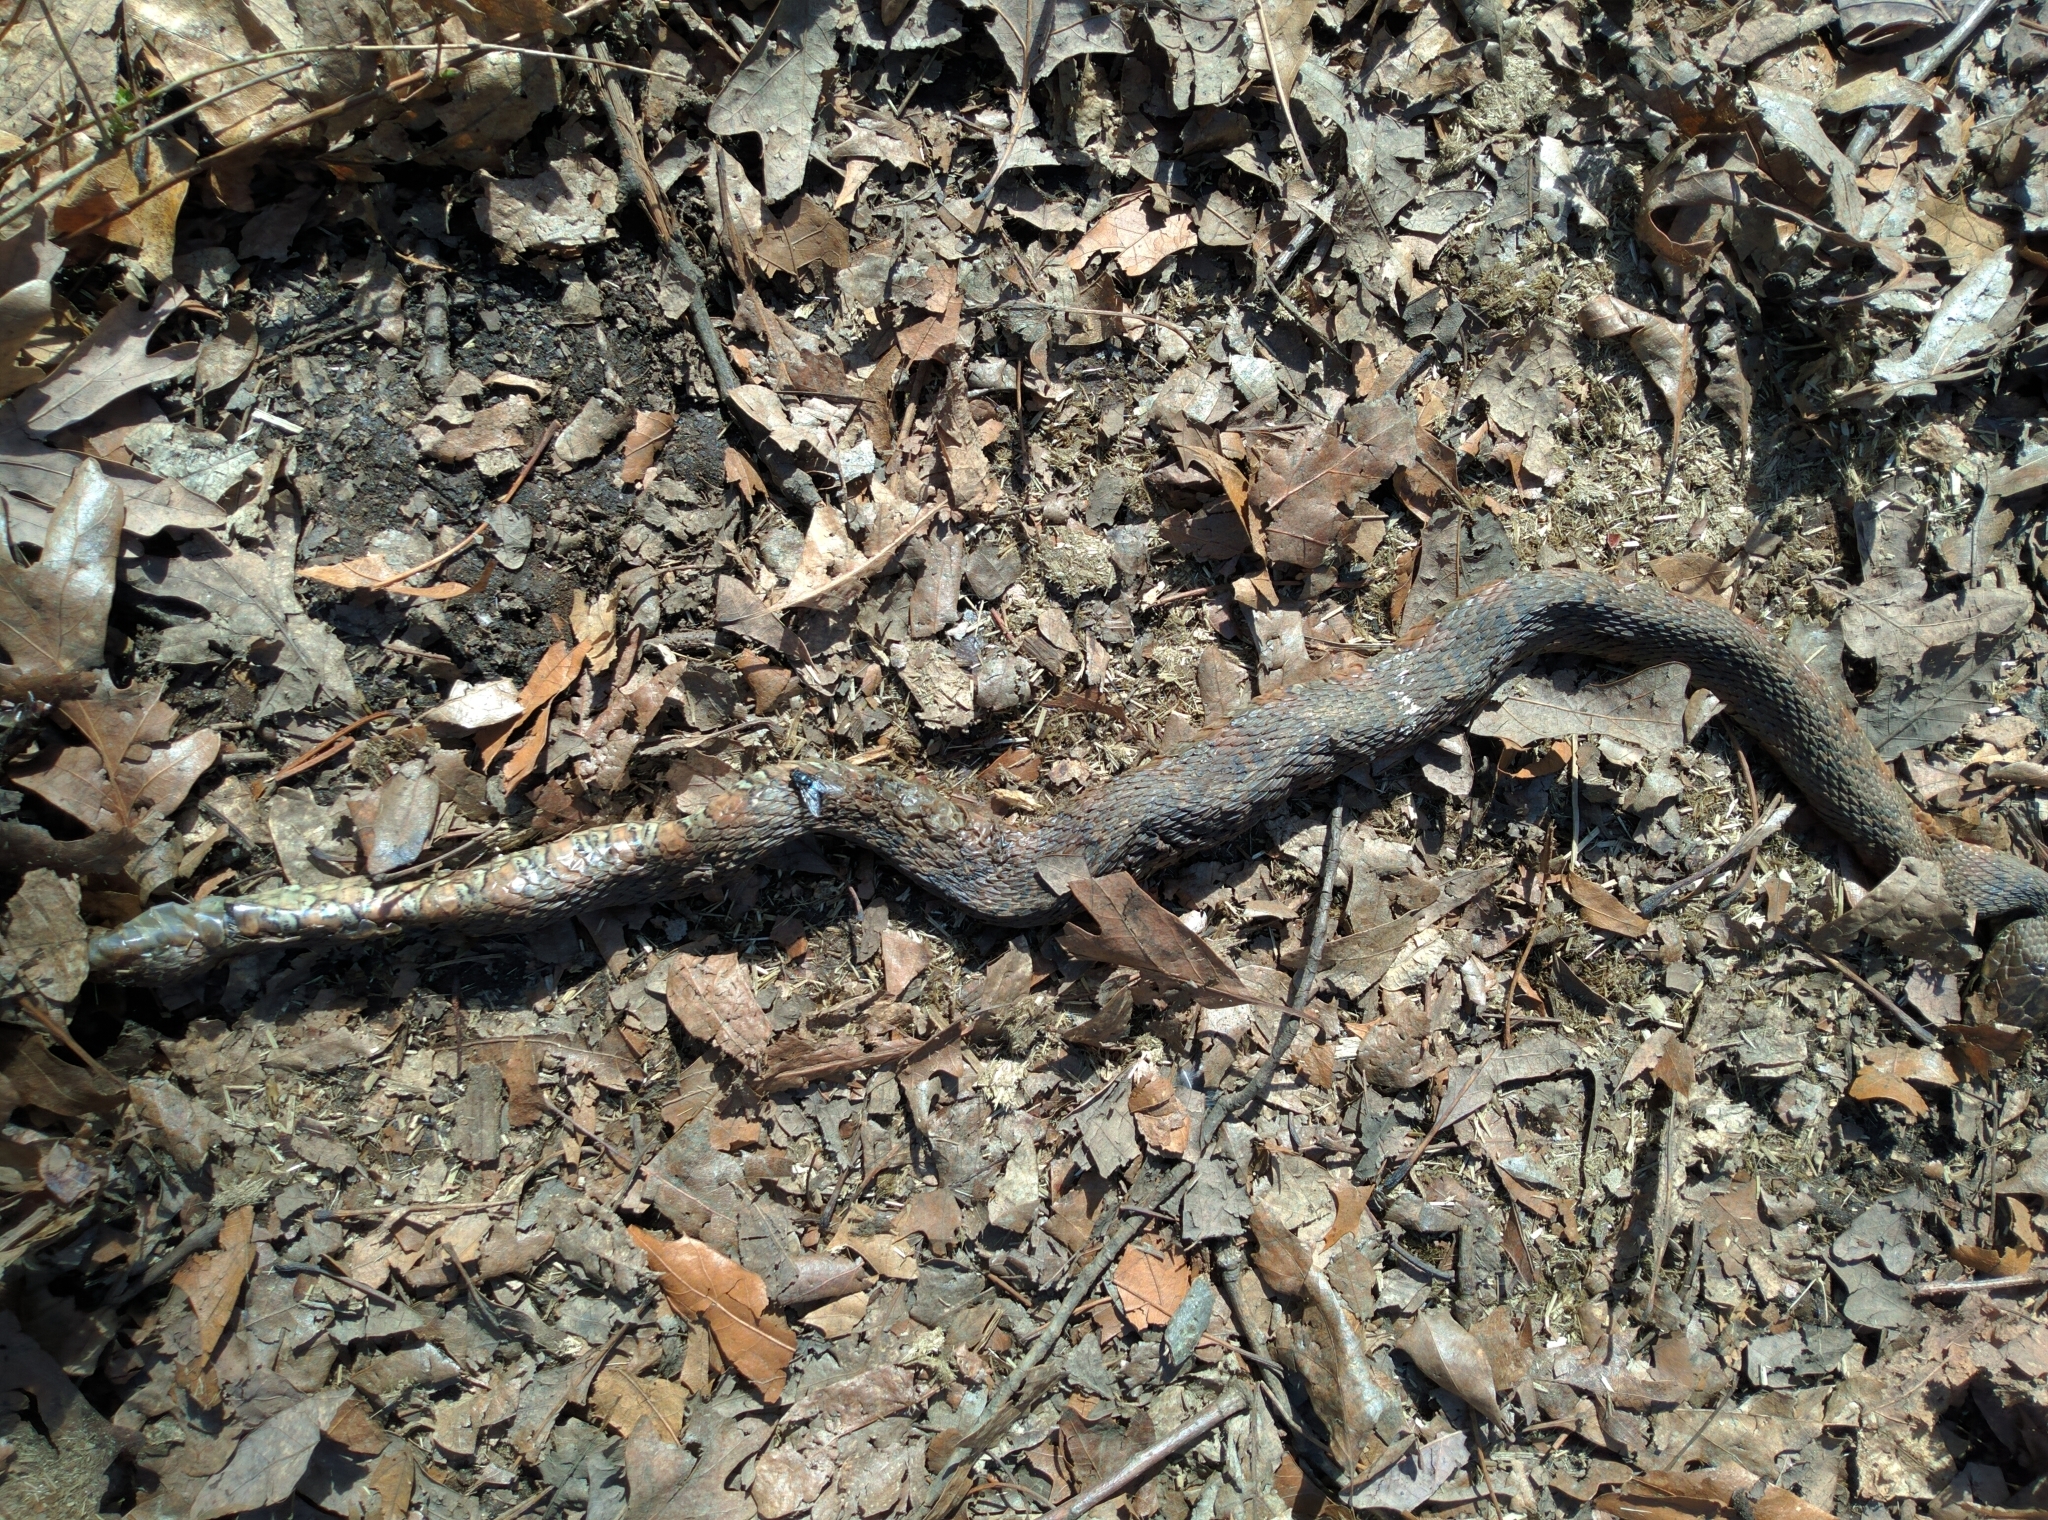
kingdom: Animalia
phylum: Chordata
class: Squamata
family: Colubridae
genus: Nerodia
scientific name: Nerodia sipedon
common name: Northern water snake
